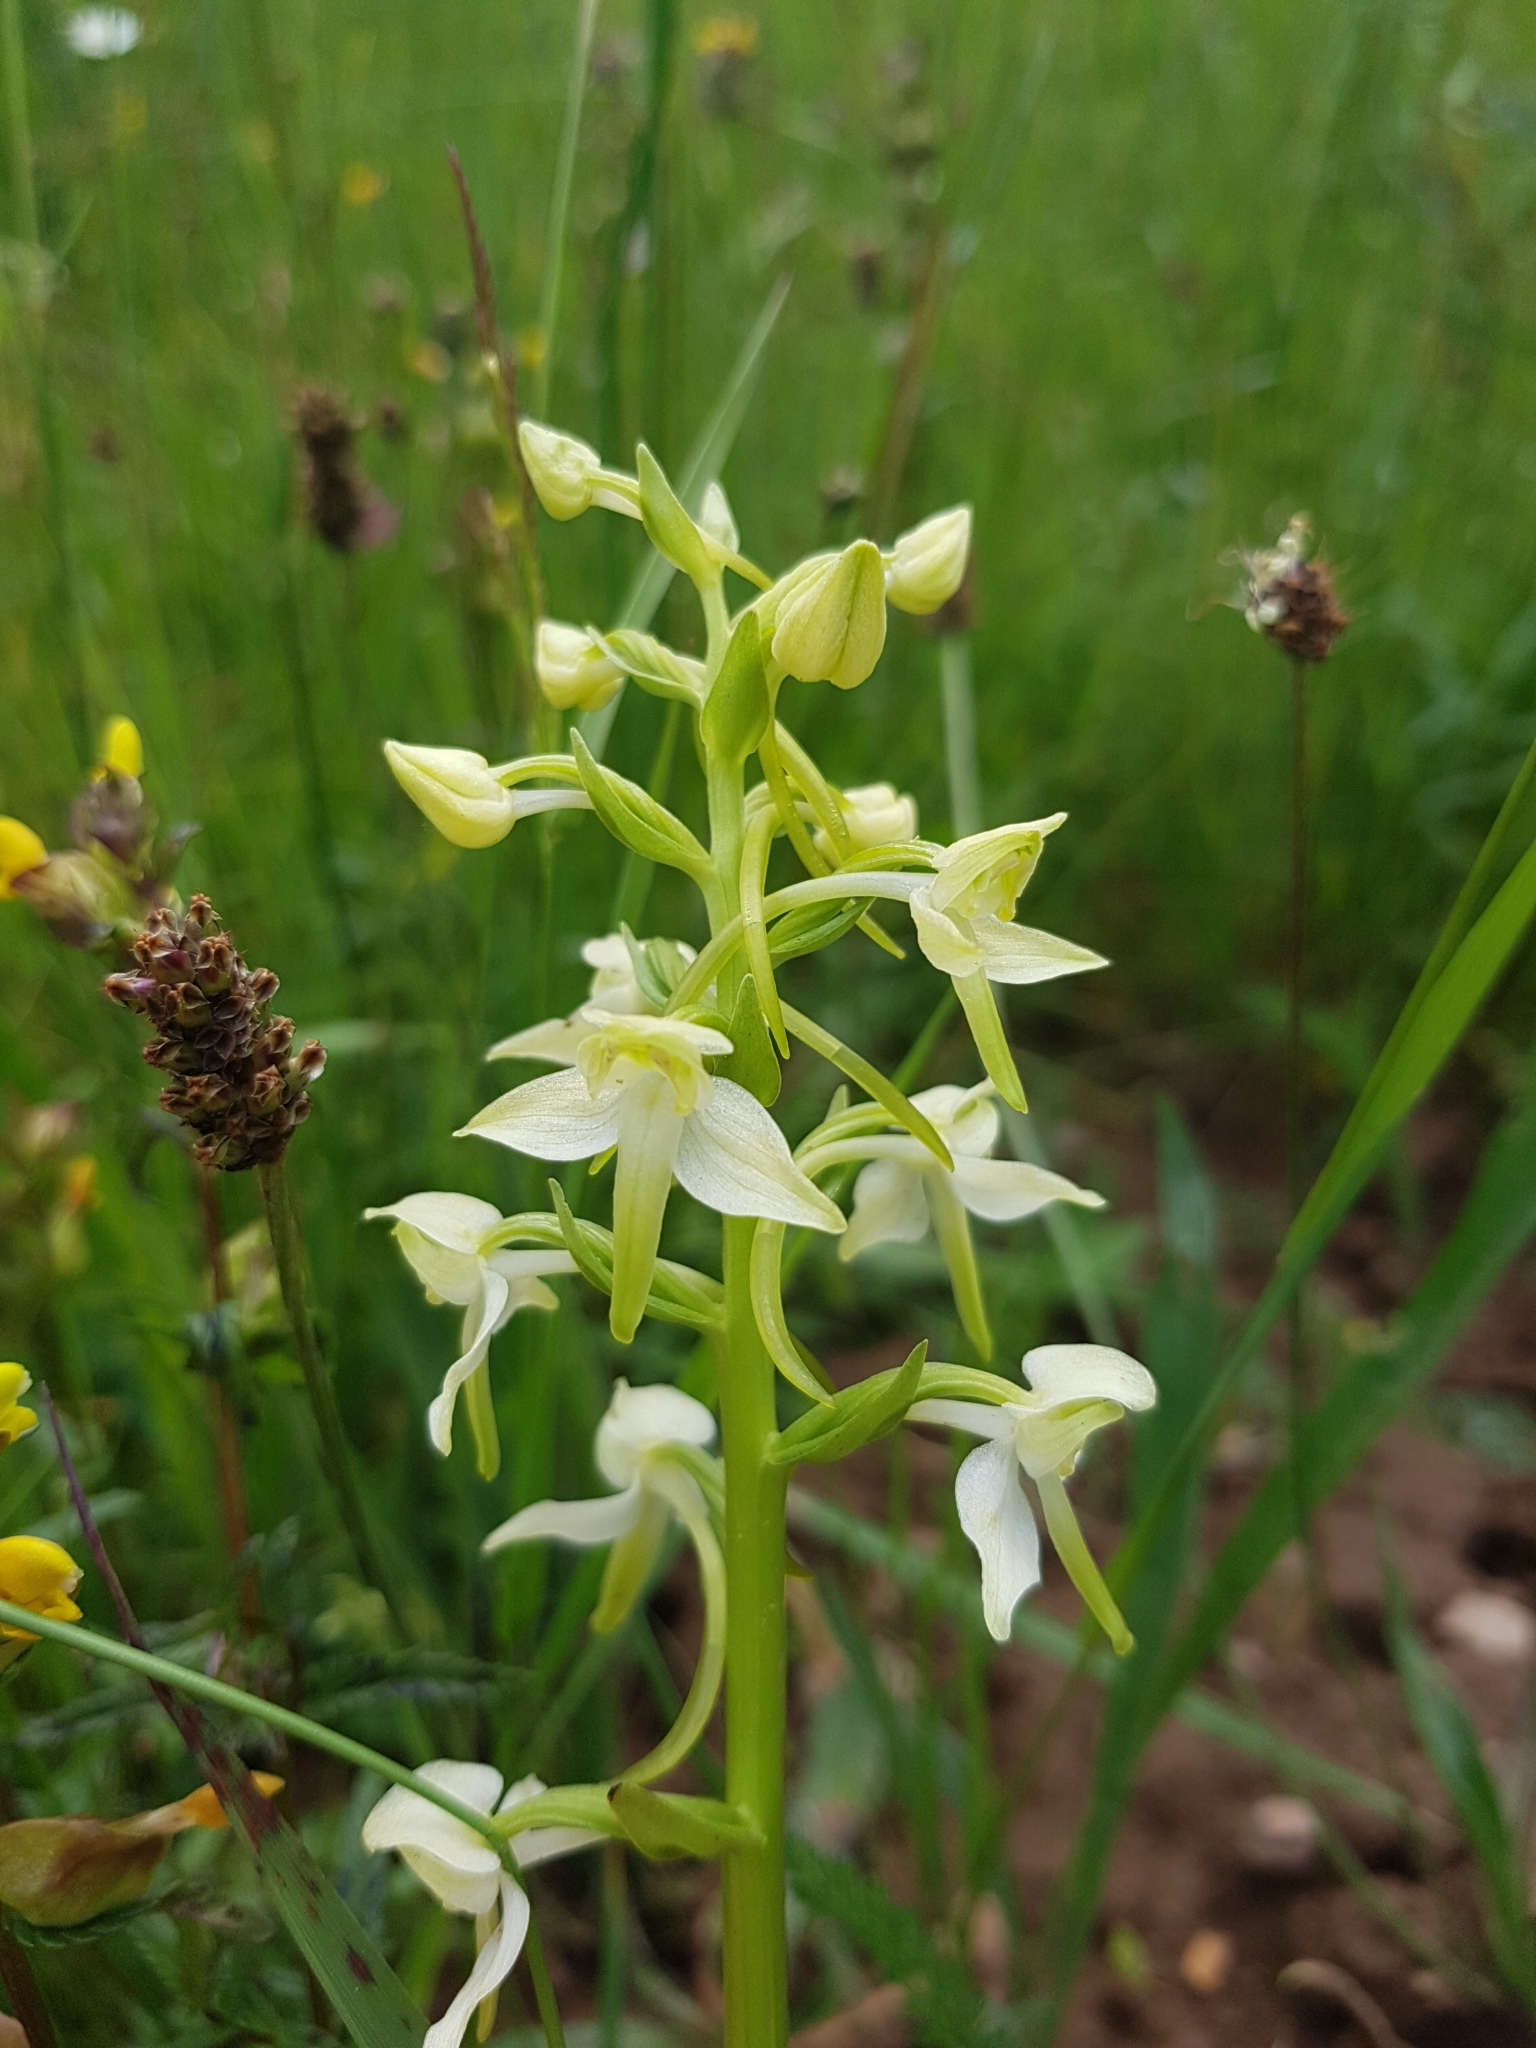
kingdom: Plantae
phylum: Tracheophyta
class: Liliopsida
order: Asparagales
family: Orchidaceae
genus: Platanthera
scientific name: Platanthera chlorantha
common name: Greater butterfly-orchid
